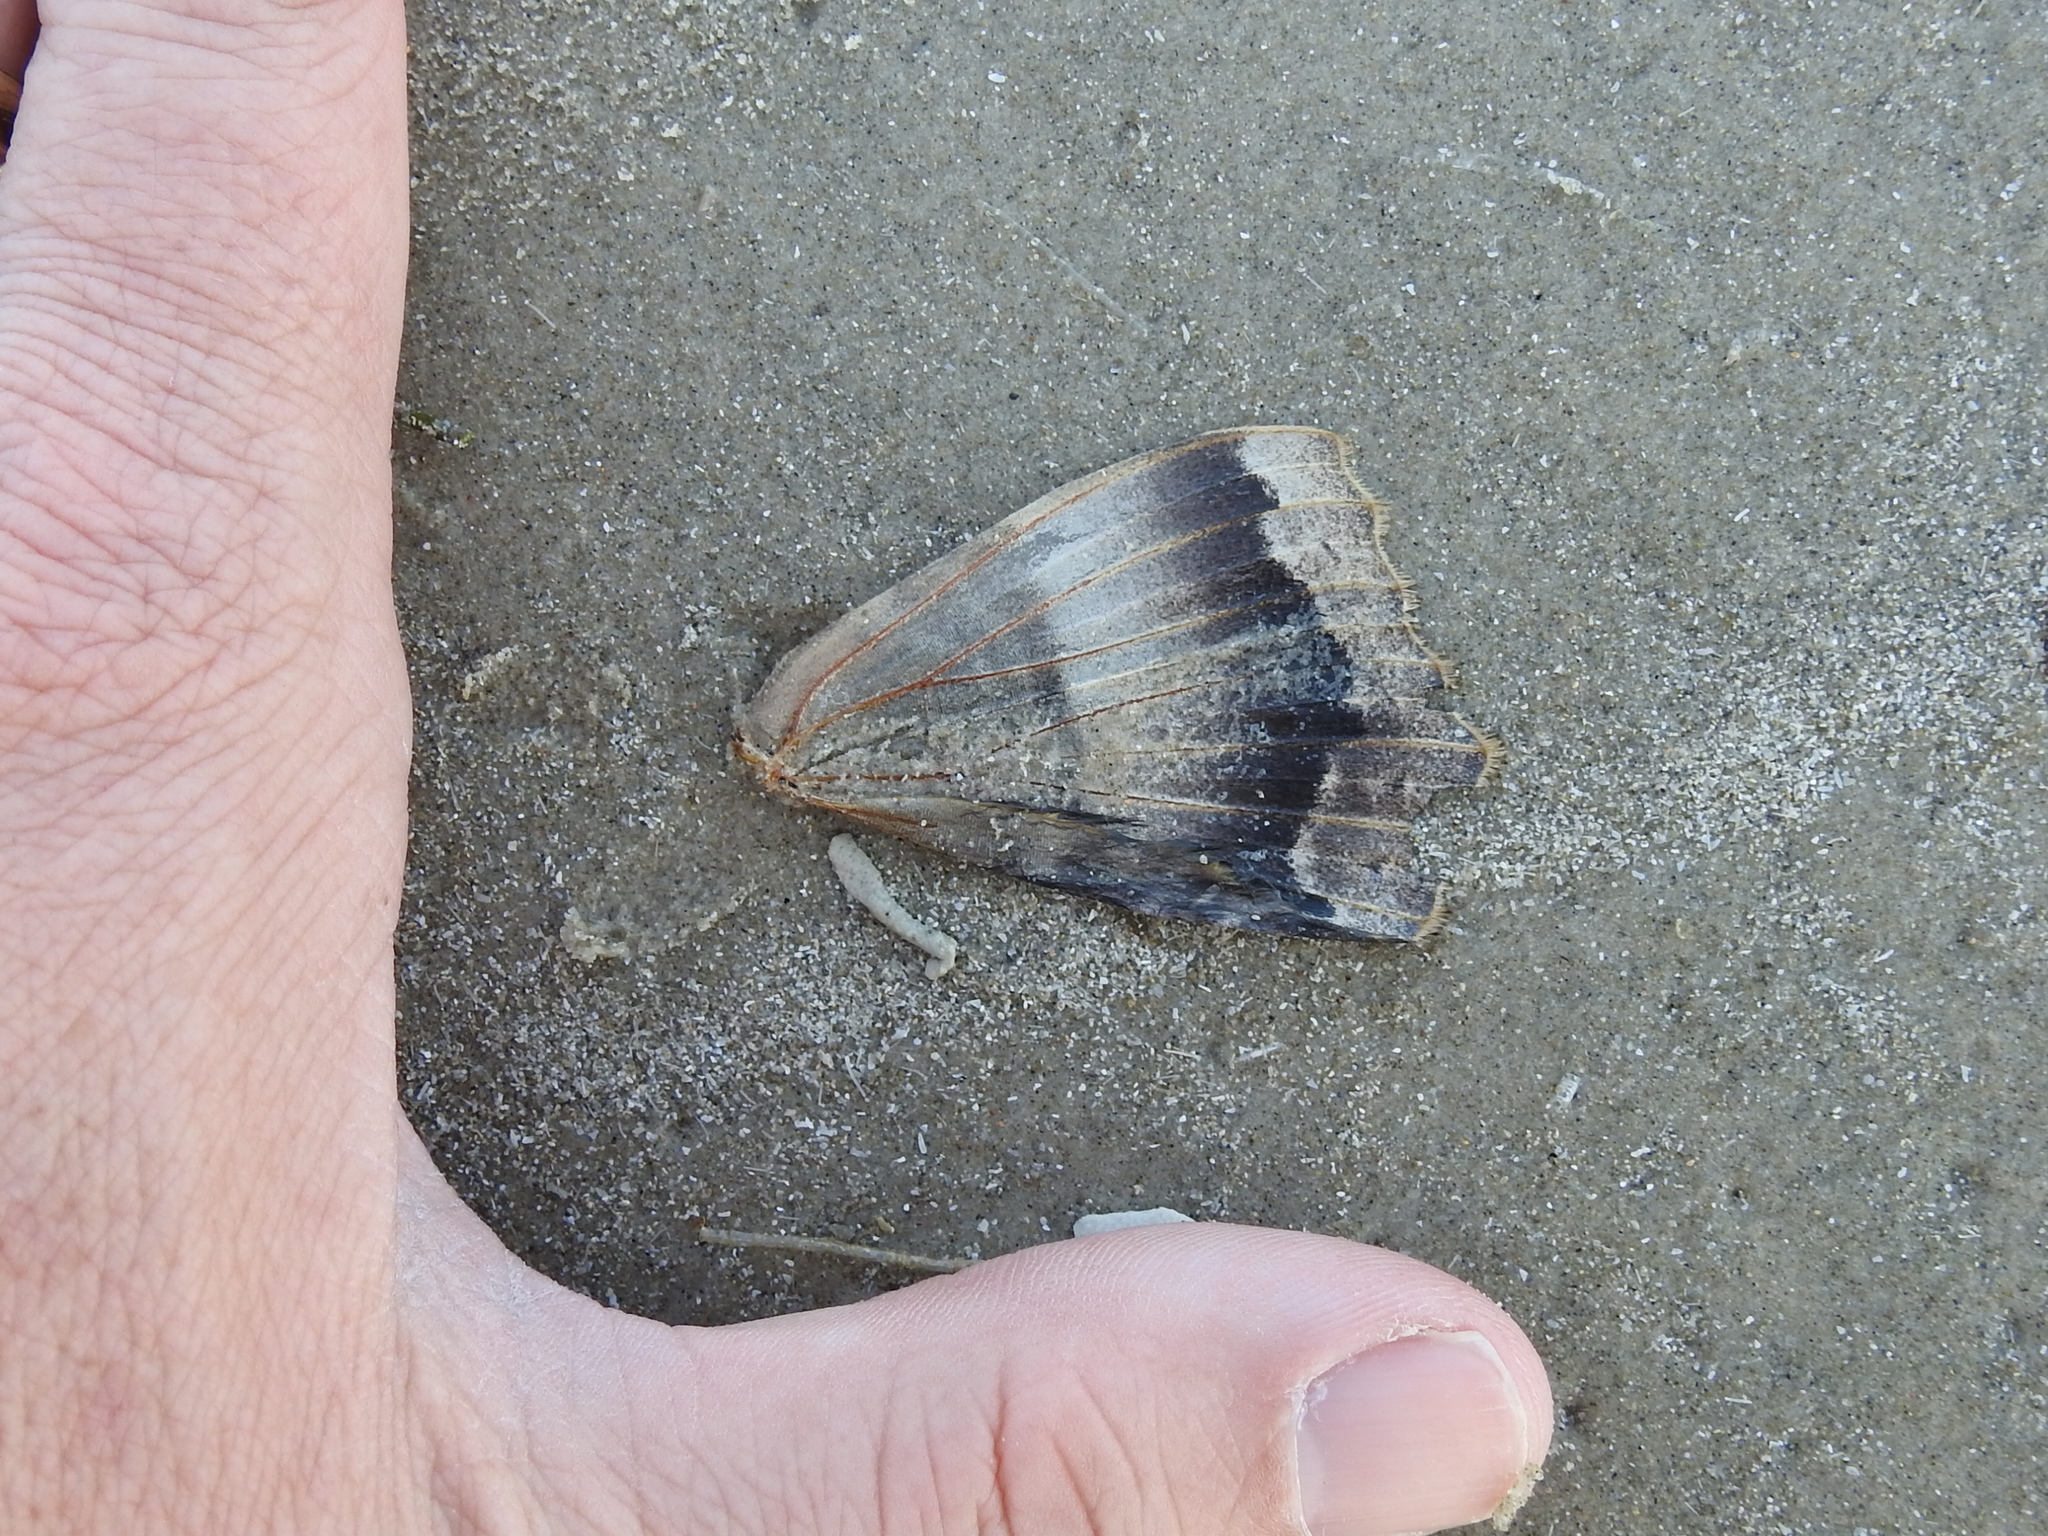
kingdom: Animalia
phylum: Arthropoda
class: Insecta
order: Lepidoptera
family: Erebidae
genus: Ascalapha
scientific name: Ascalapha odorata
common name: Black witch
